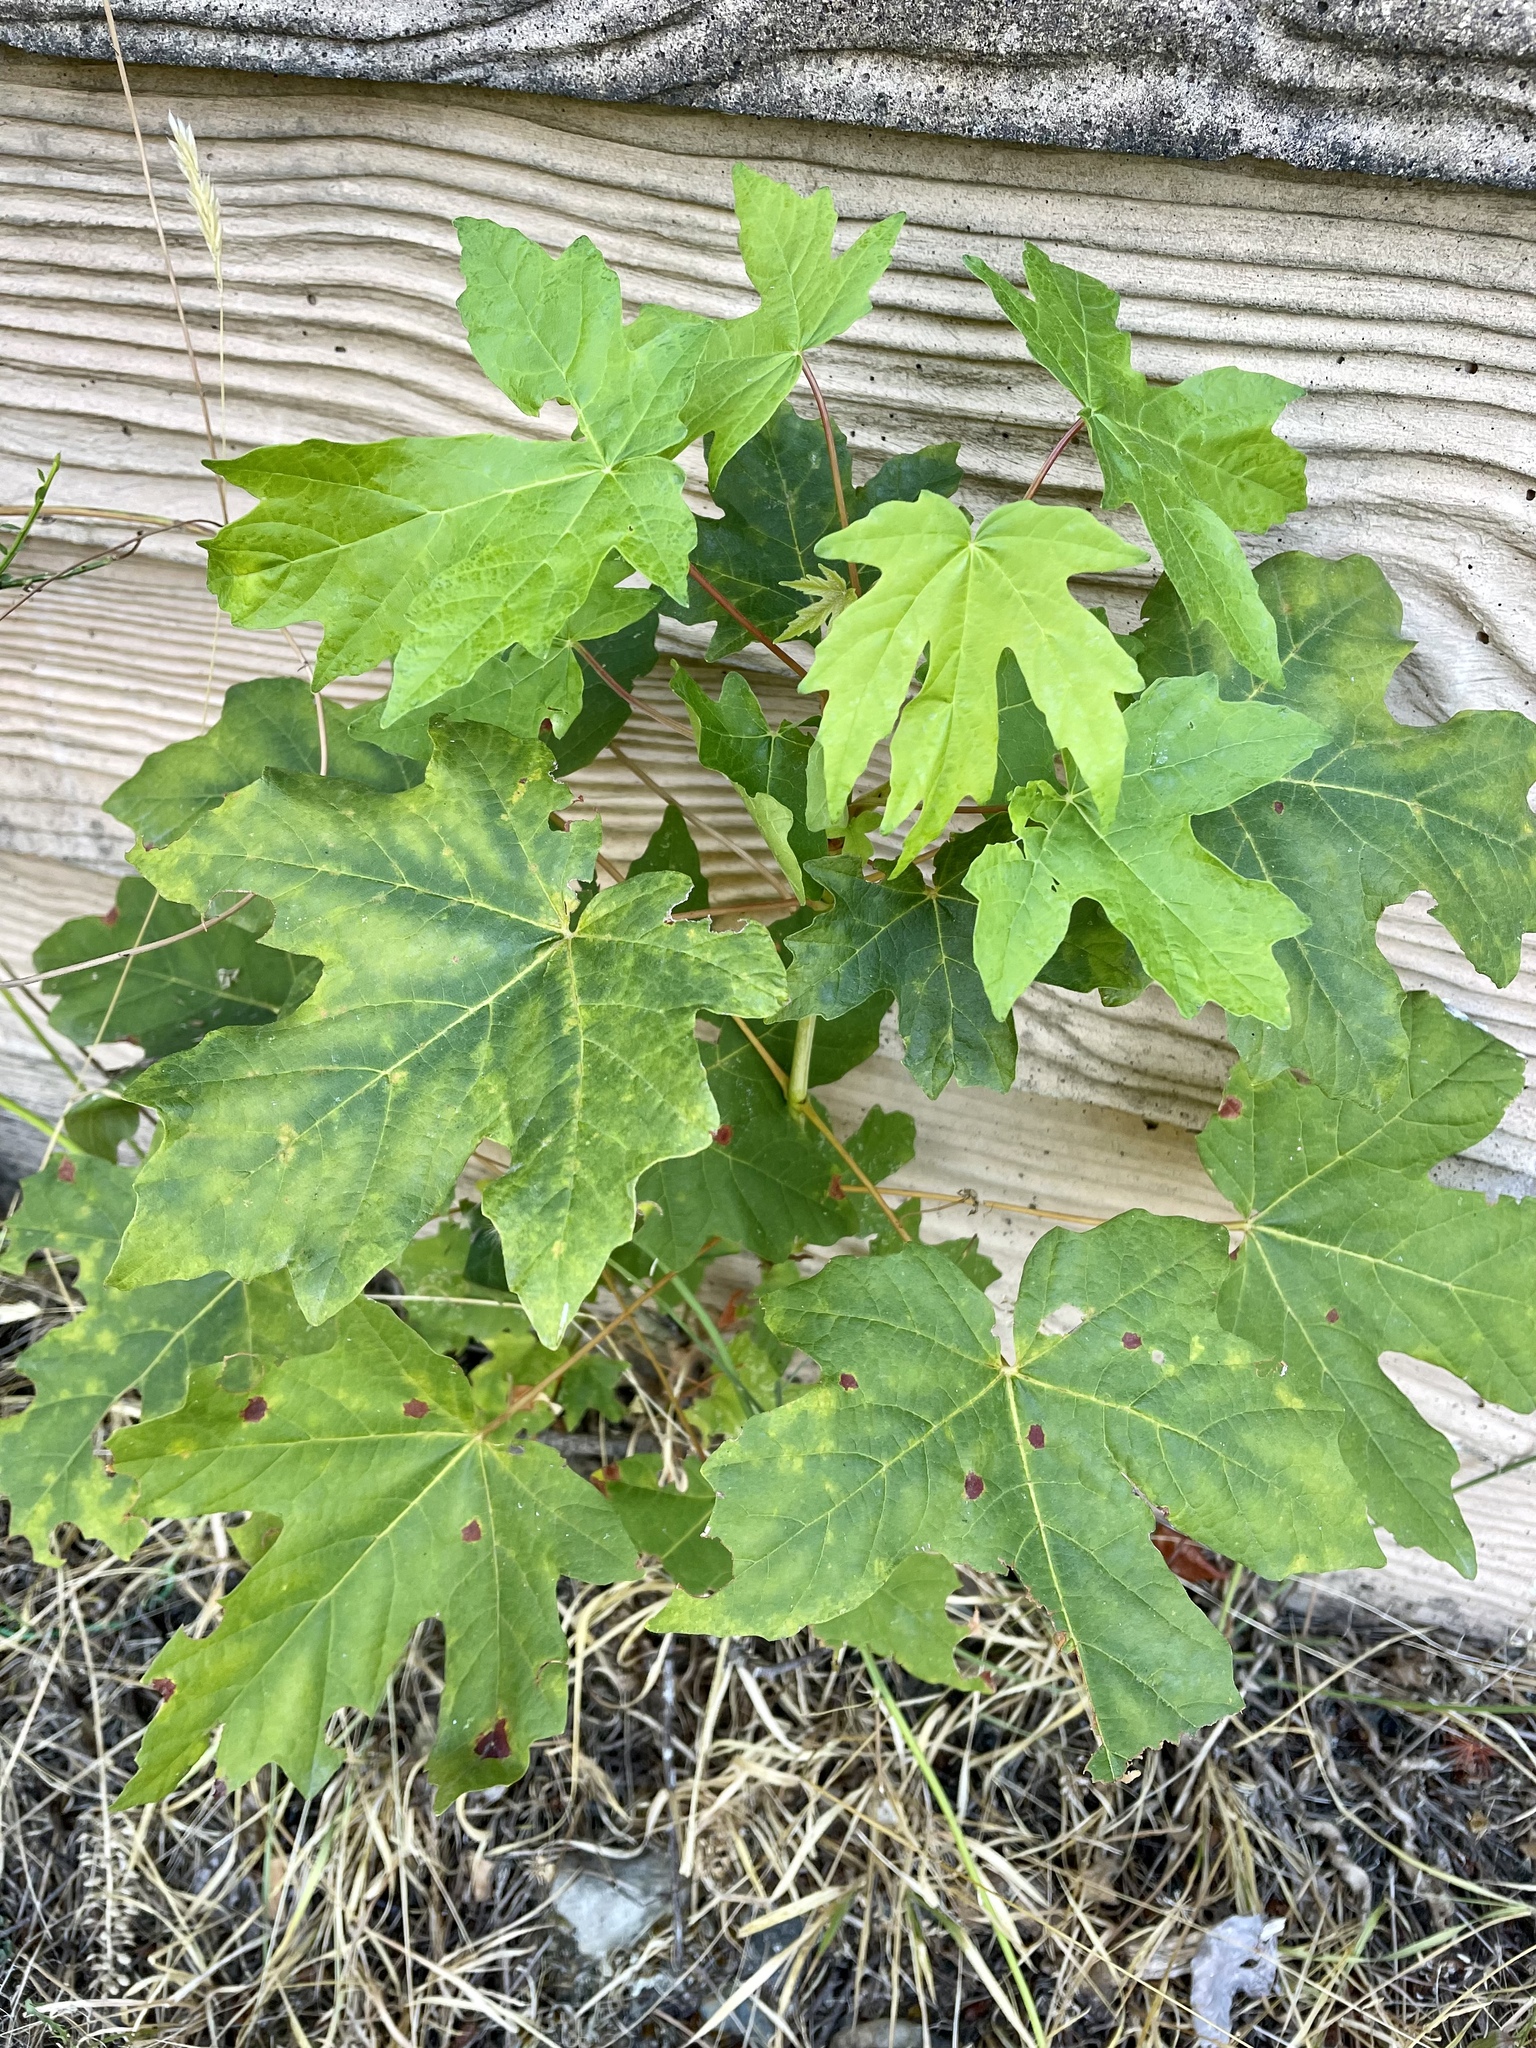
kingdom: Plantae
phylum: Tracheophyta
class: Magnoliopsida
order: Sapindales
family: Sapindaceae
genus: Acer
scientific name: Acer macrophyllum
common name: Oregon maple
